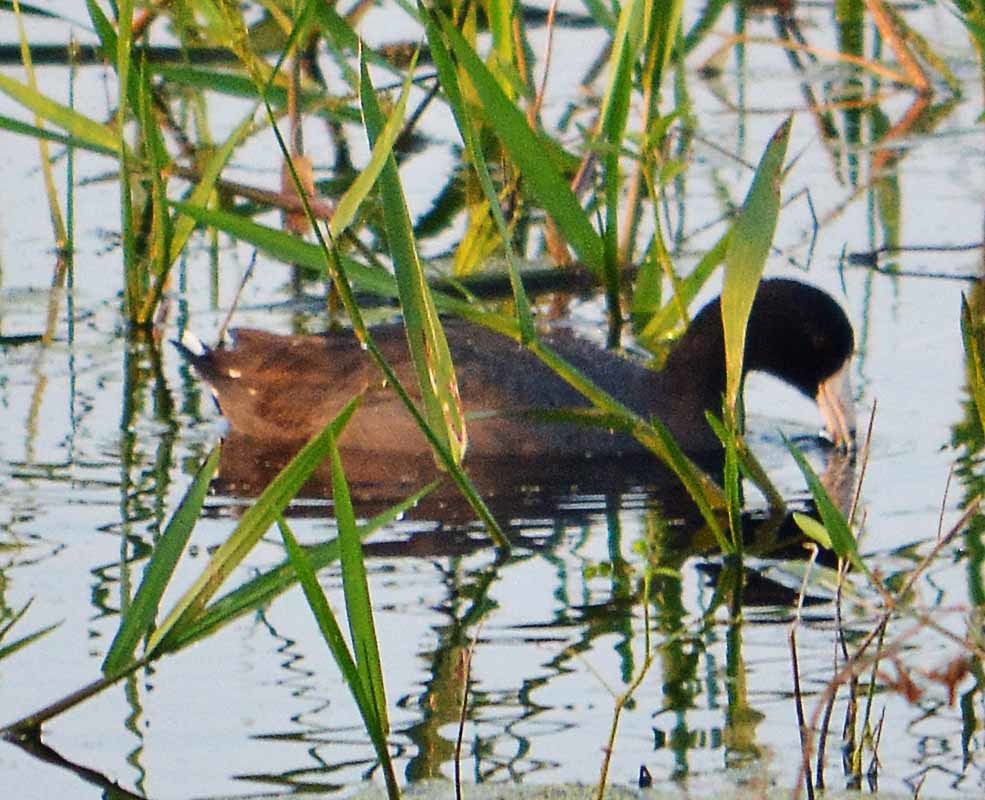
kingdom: Animalia
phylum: Chordata
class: Aves
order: Gruiformes
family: Rallidae
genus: Fulica
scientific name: Fulica americana
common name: American coot
